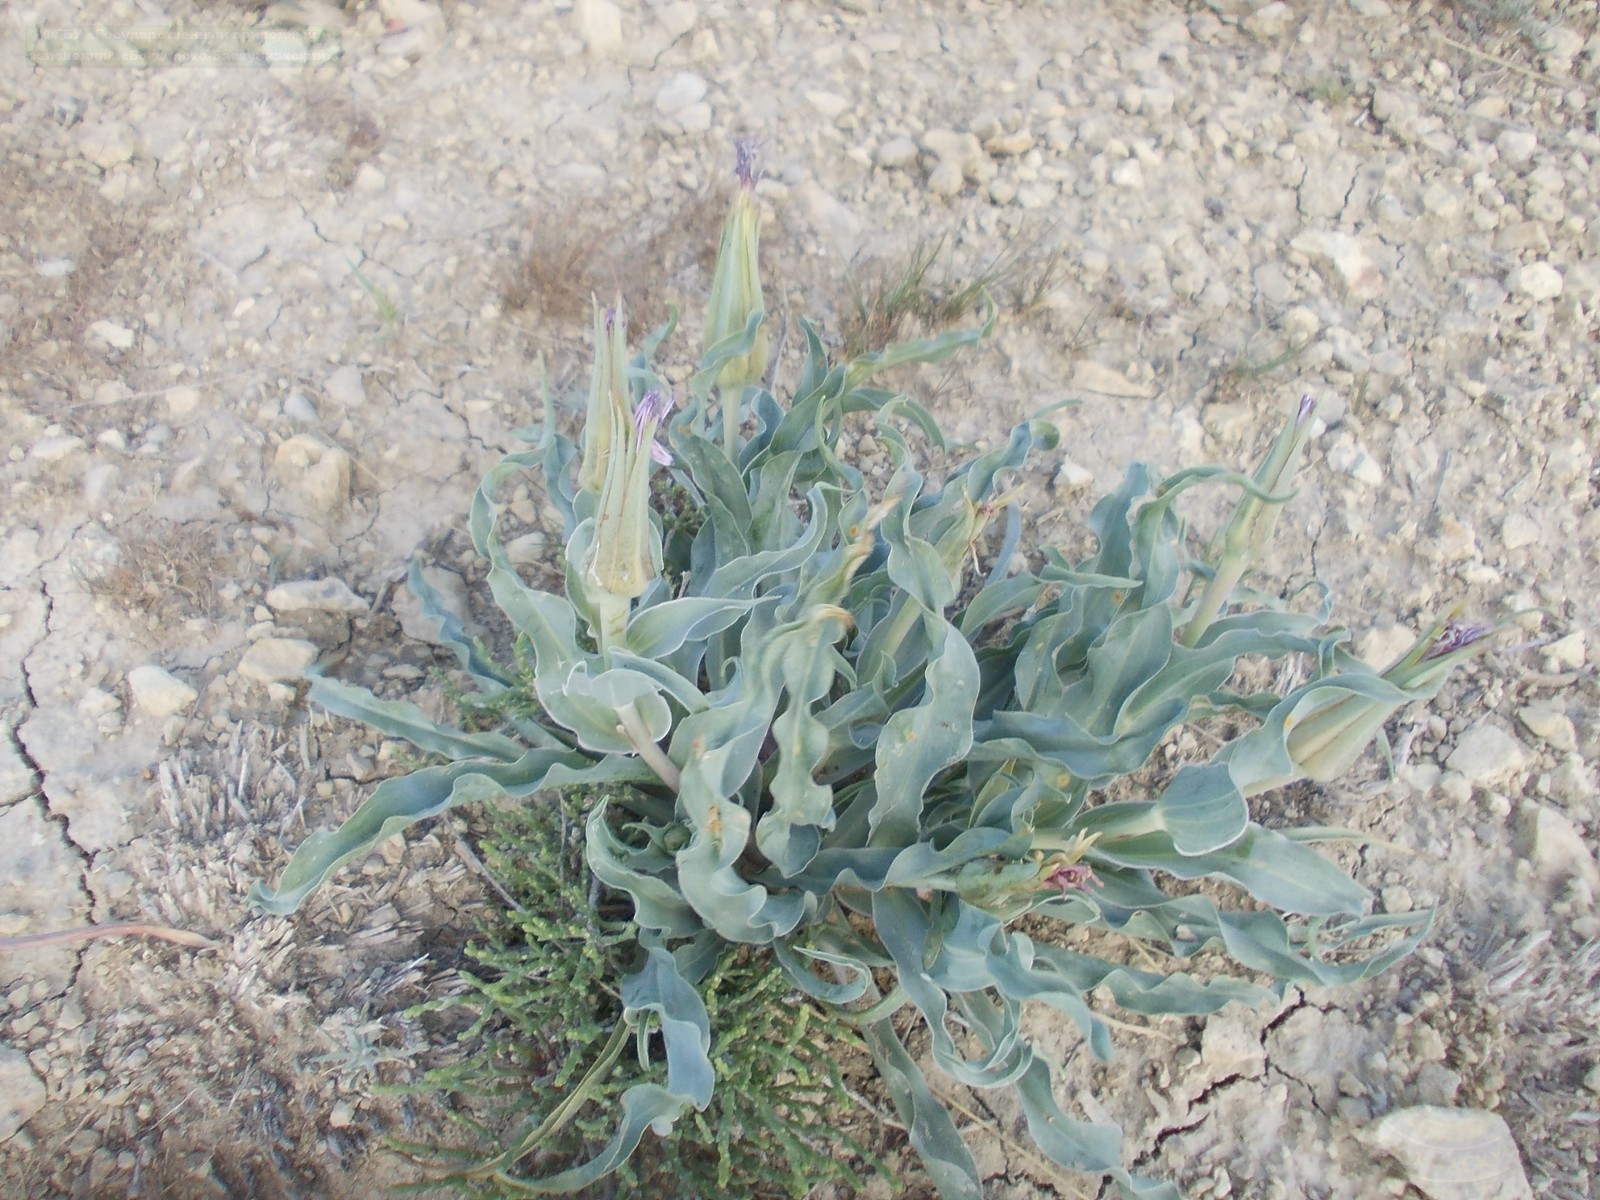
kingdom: Plantae
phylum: Tracheophyta
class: Magnoliopsida
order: Asterales
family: Asteraceae
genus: Tragopogon
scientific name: Tragopogon marginifolius
